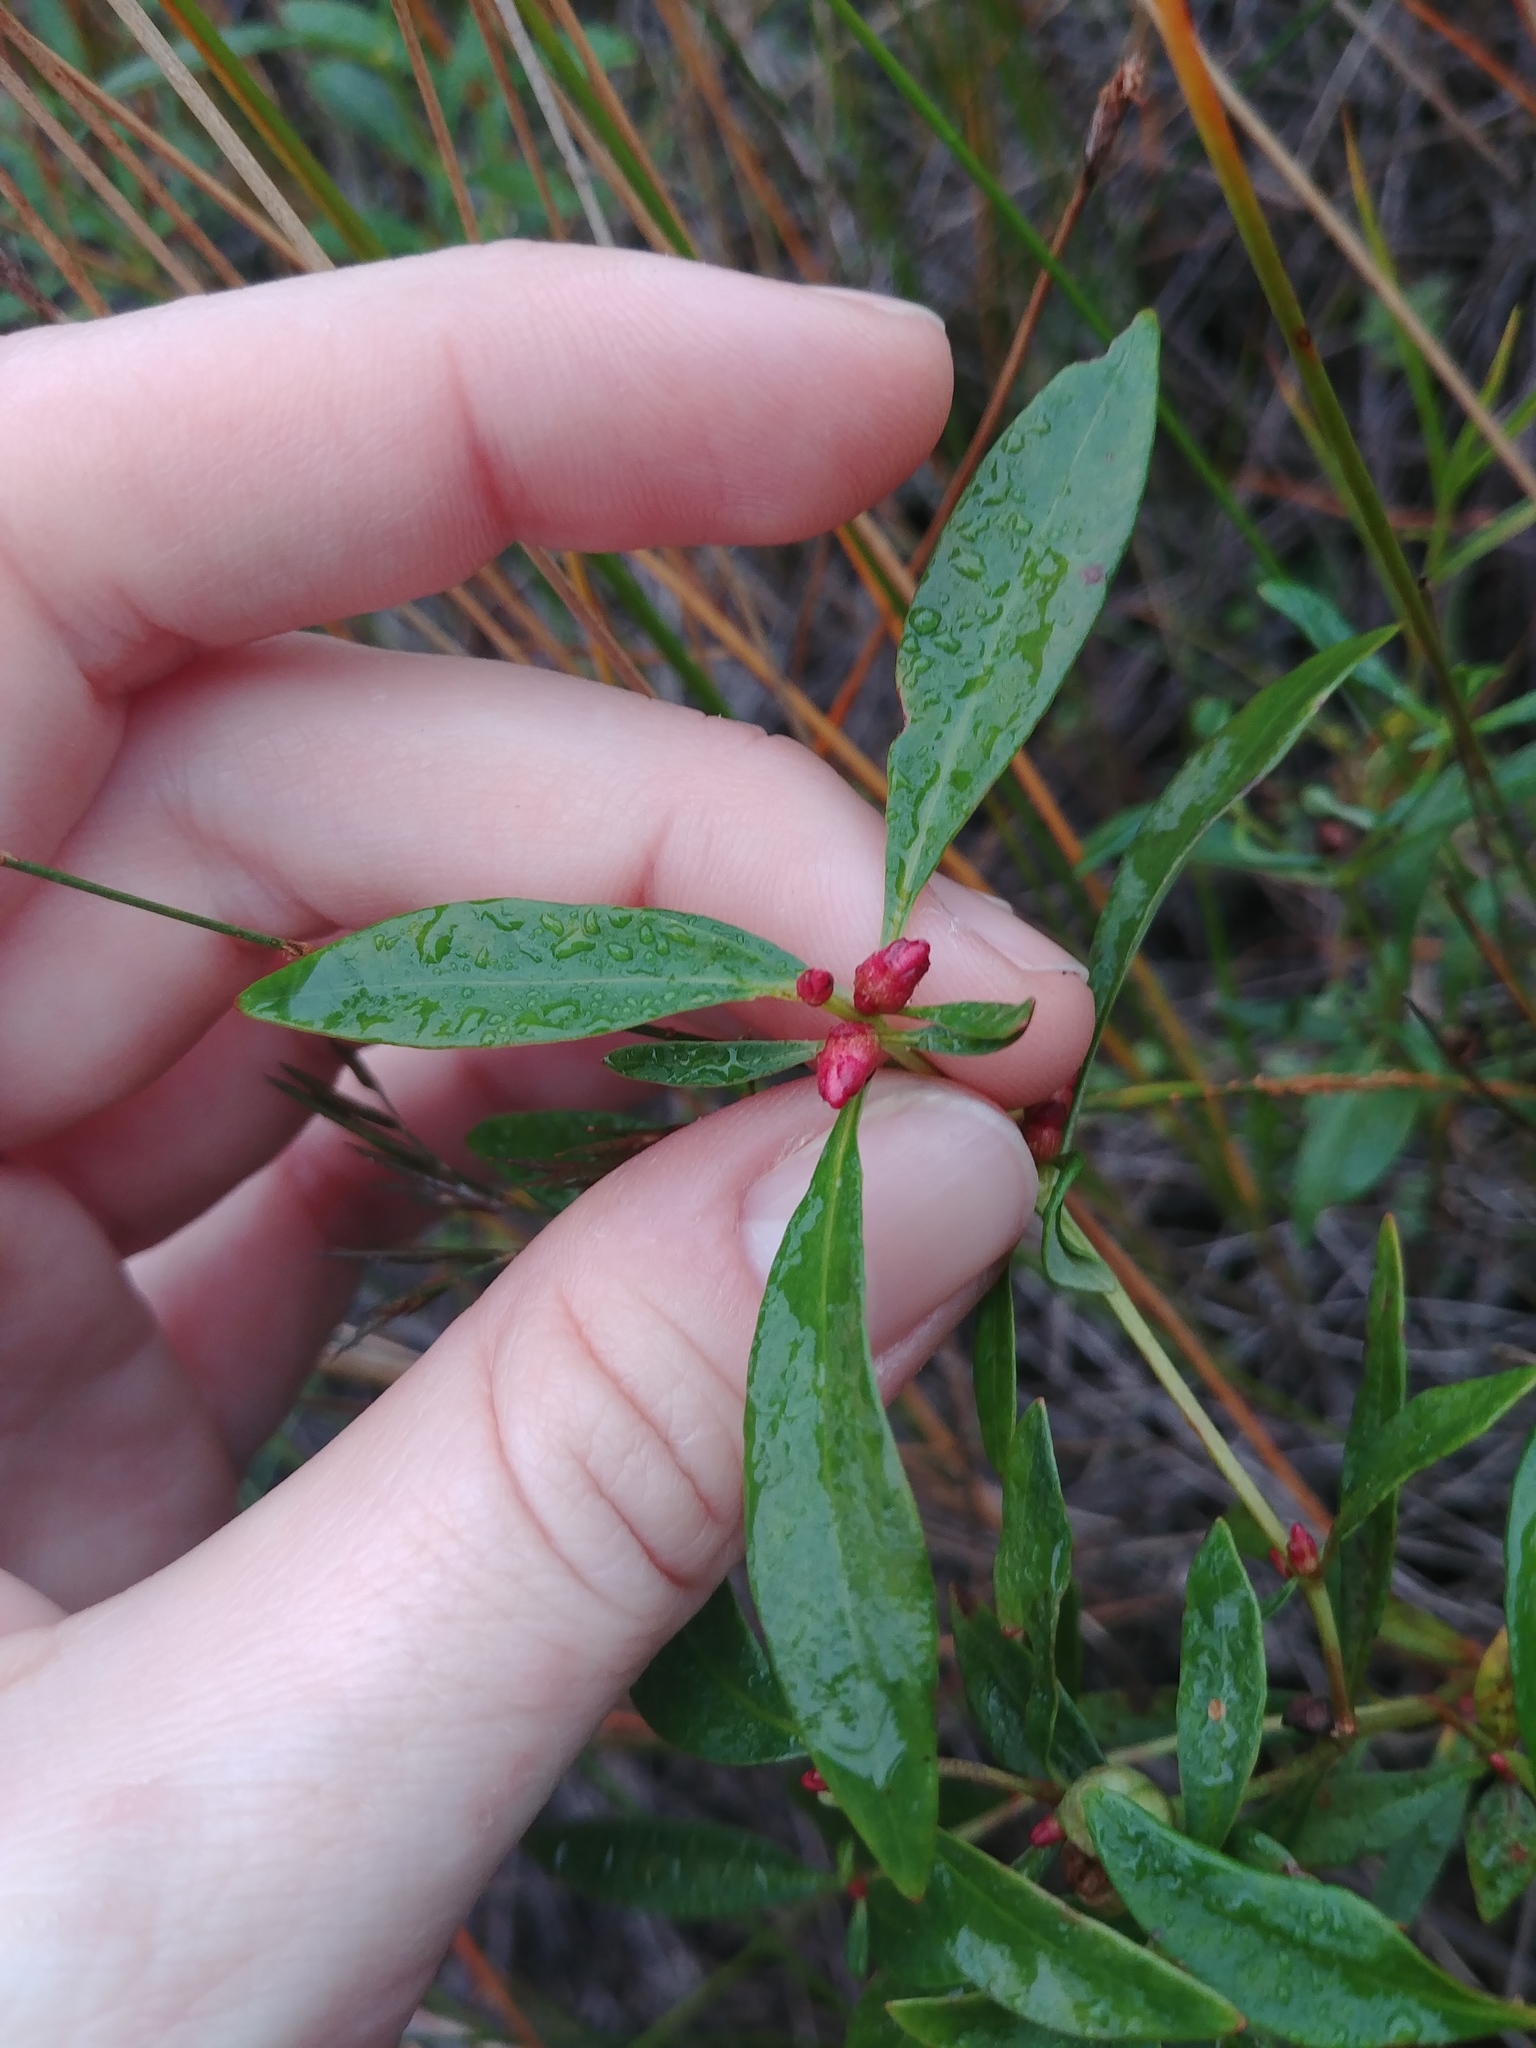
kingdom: Plantae
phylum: Tracheophyta
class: Magnoliopsida
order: Ericales
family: Primulaceae
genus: Lysimachia
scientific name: Lysimachia terrestris
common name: Lake loosestrife
